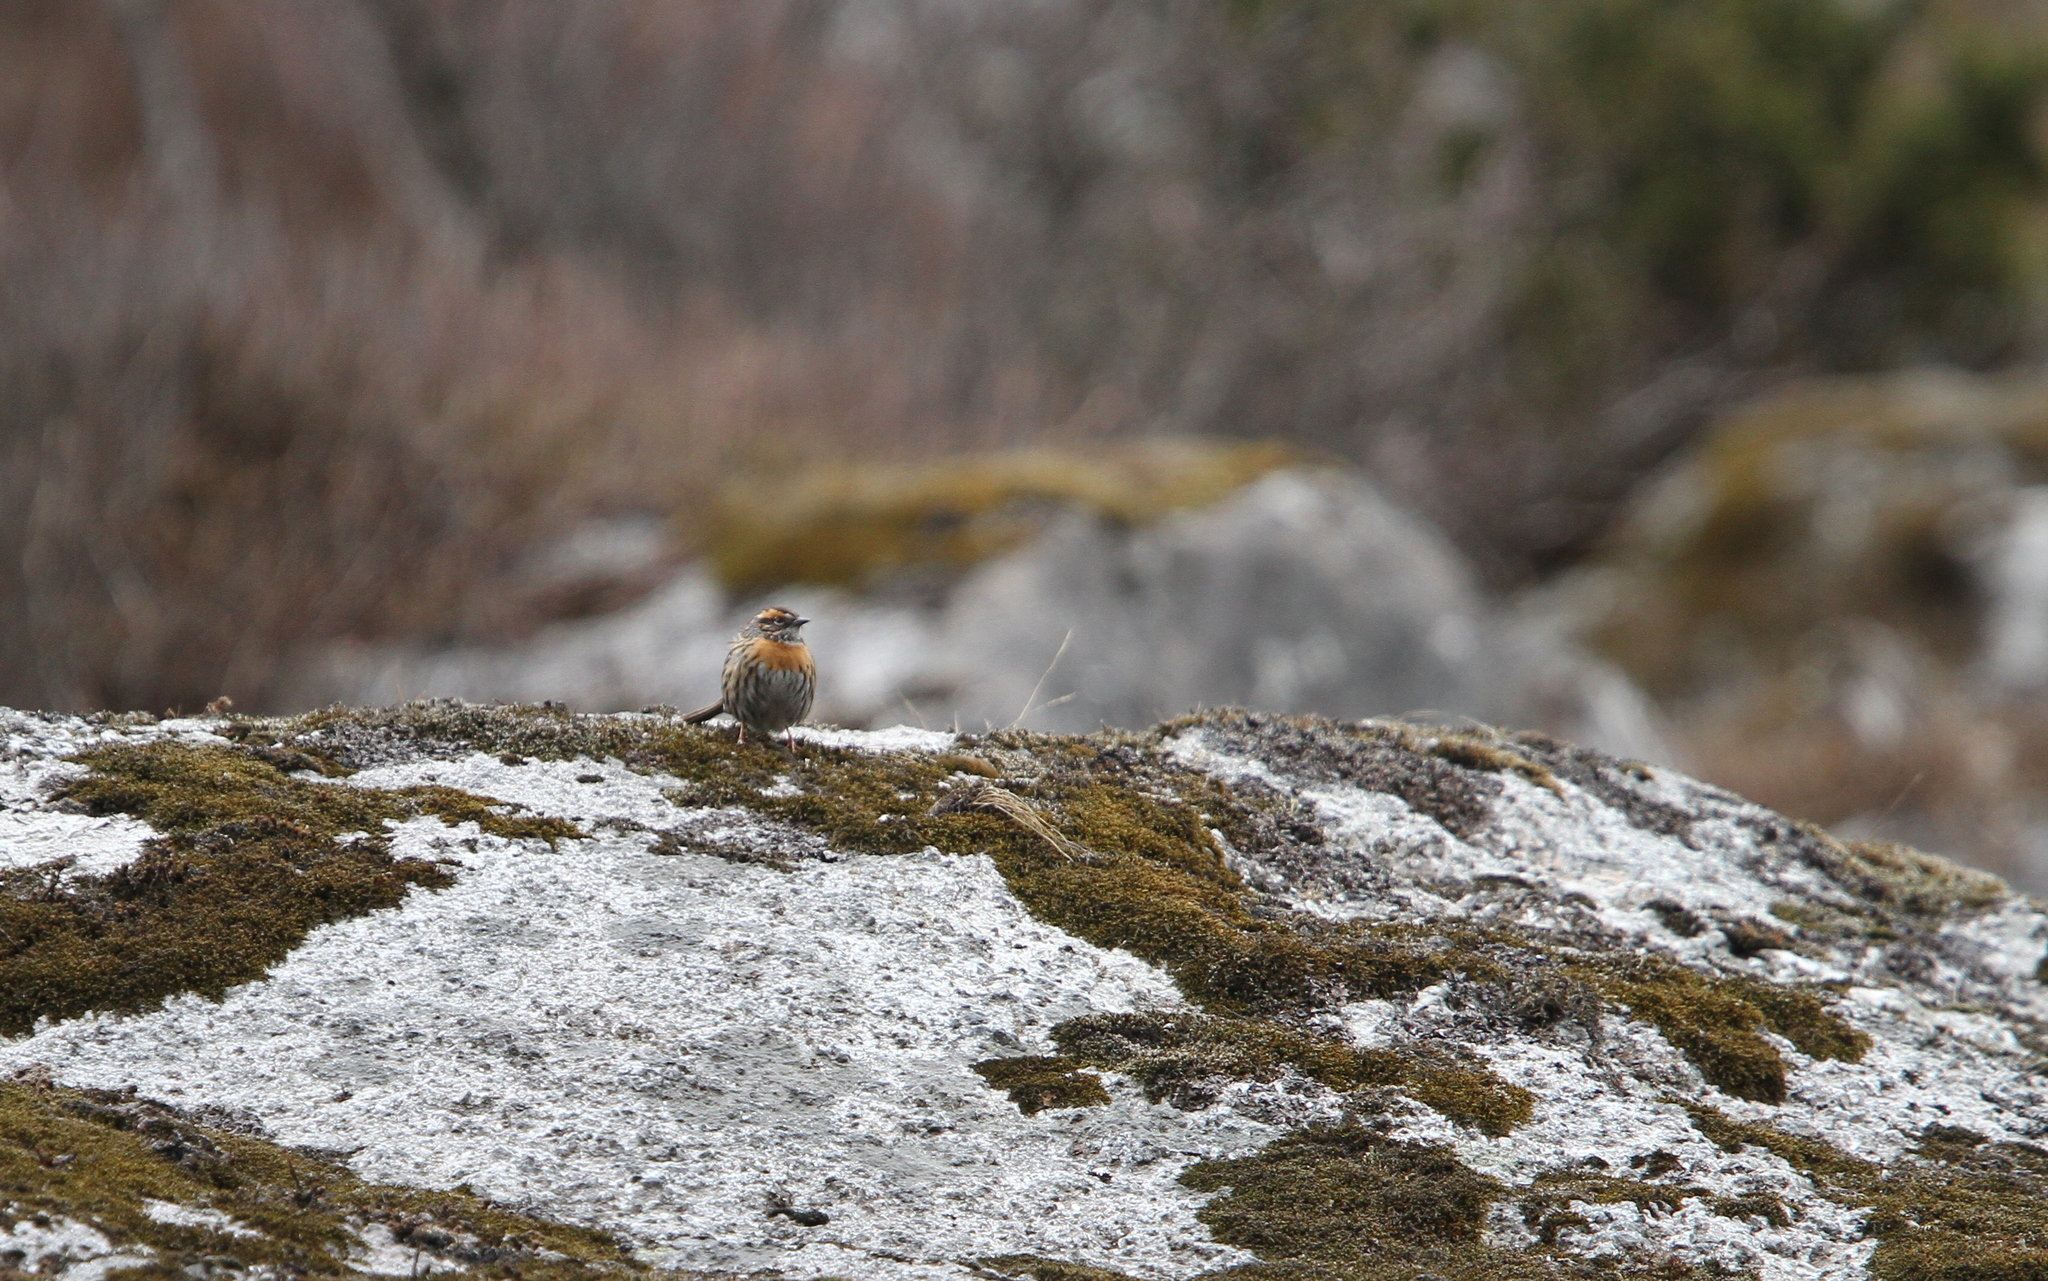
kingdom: Animalia
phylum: Chordata
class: Aves
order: Passeriformes
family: Prunellidae
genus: Prunella
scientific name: Prunella strophiata
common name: Rufous-breasted accentor
